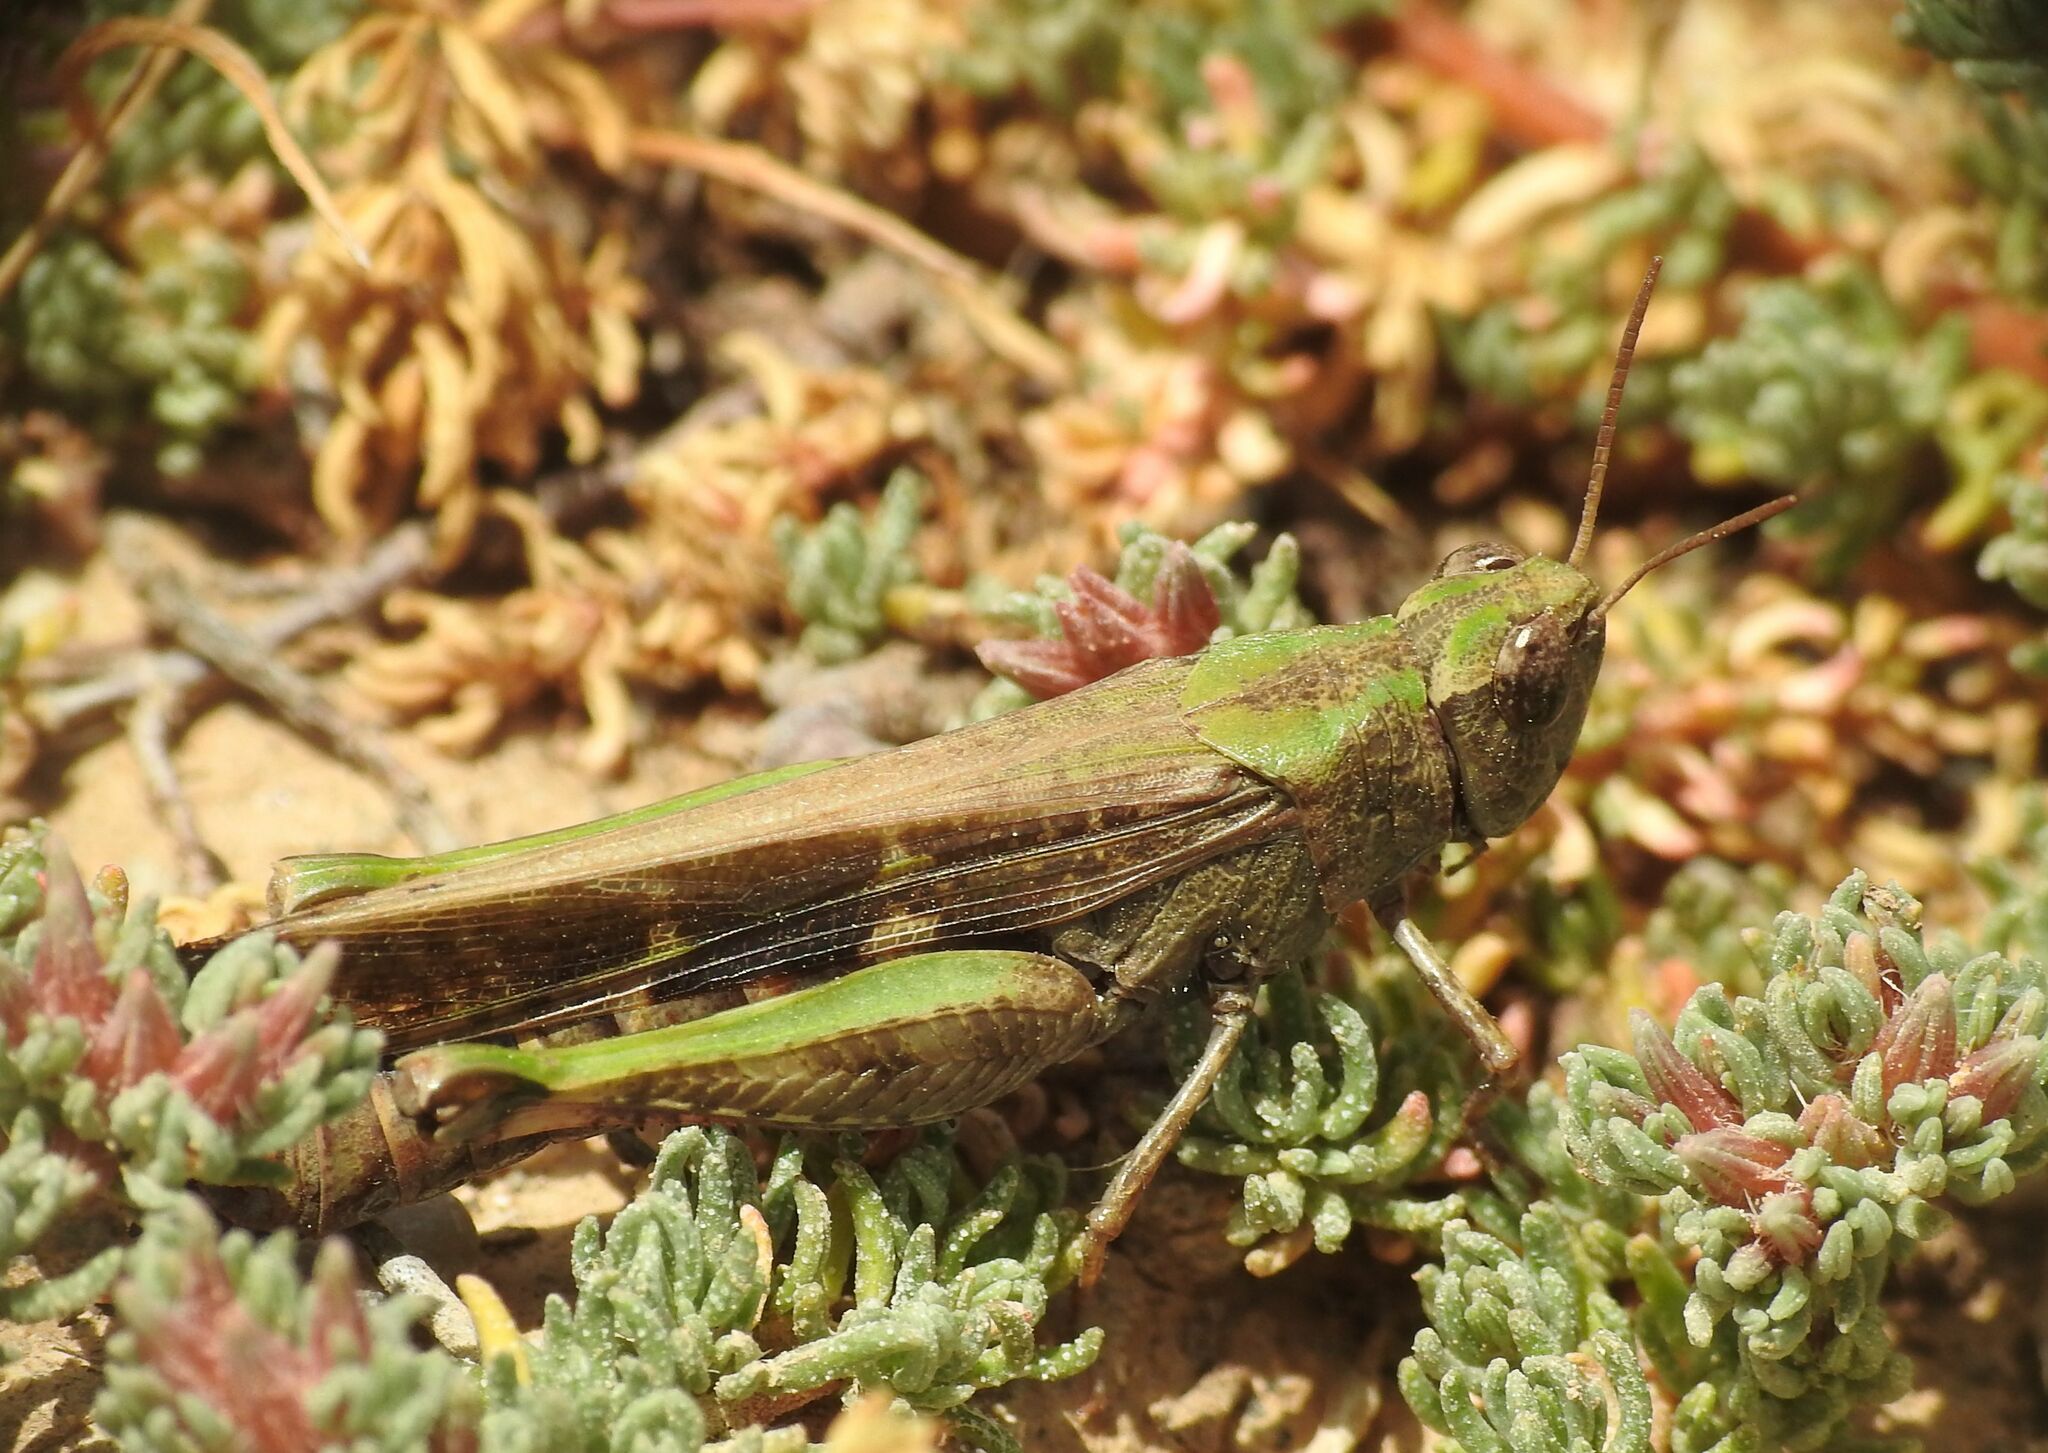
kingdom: Animalia
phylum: Arthropoda
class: Insecta
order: Orthoptera
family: Acrididae
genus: Aiolopus
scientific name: Aiolopus strepens
